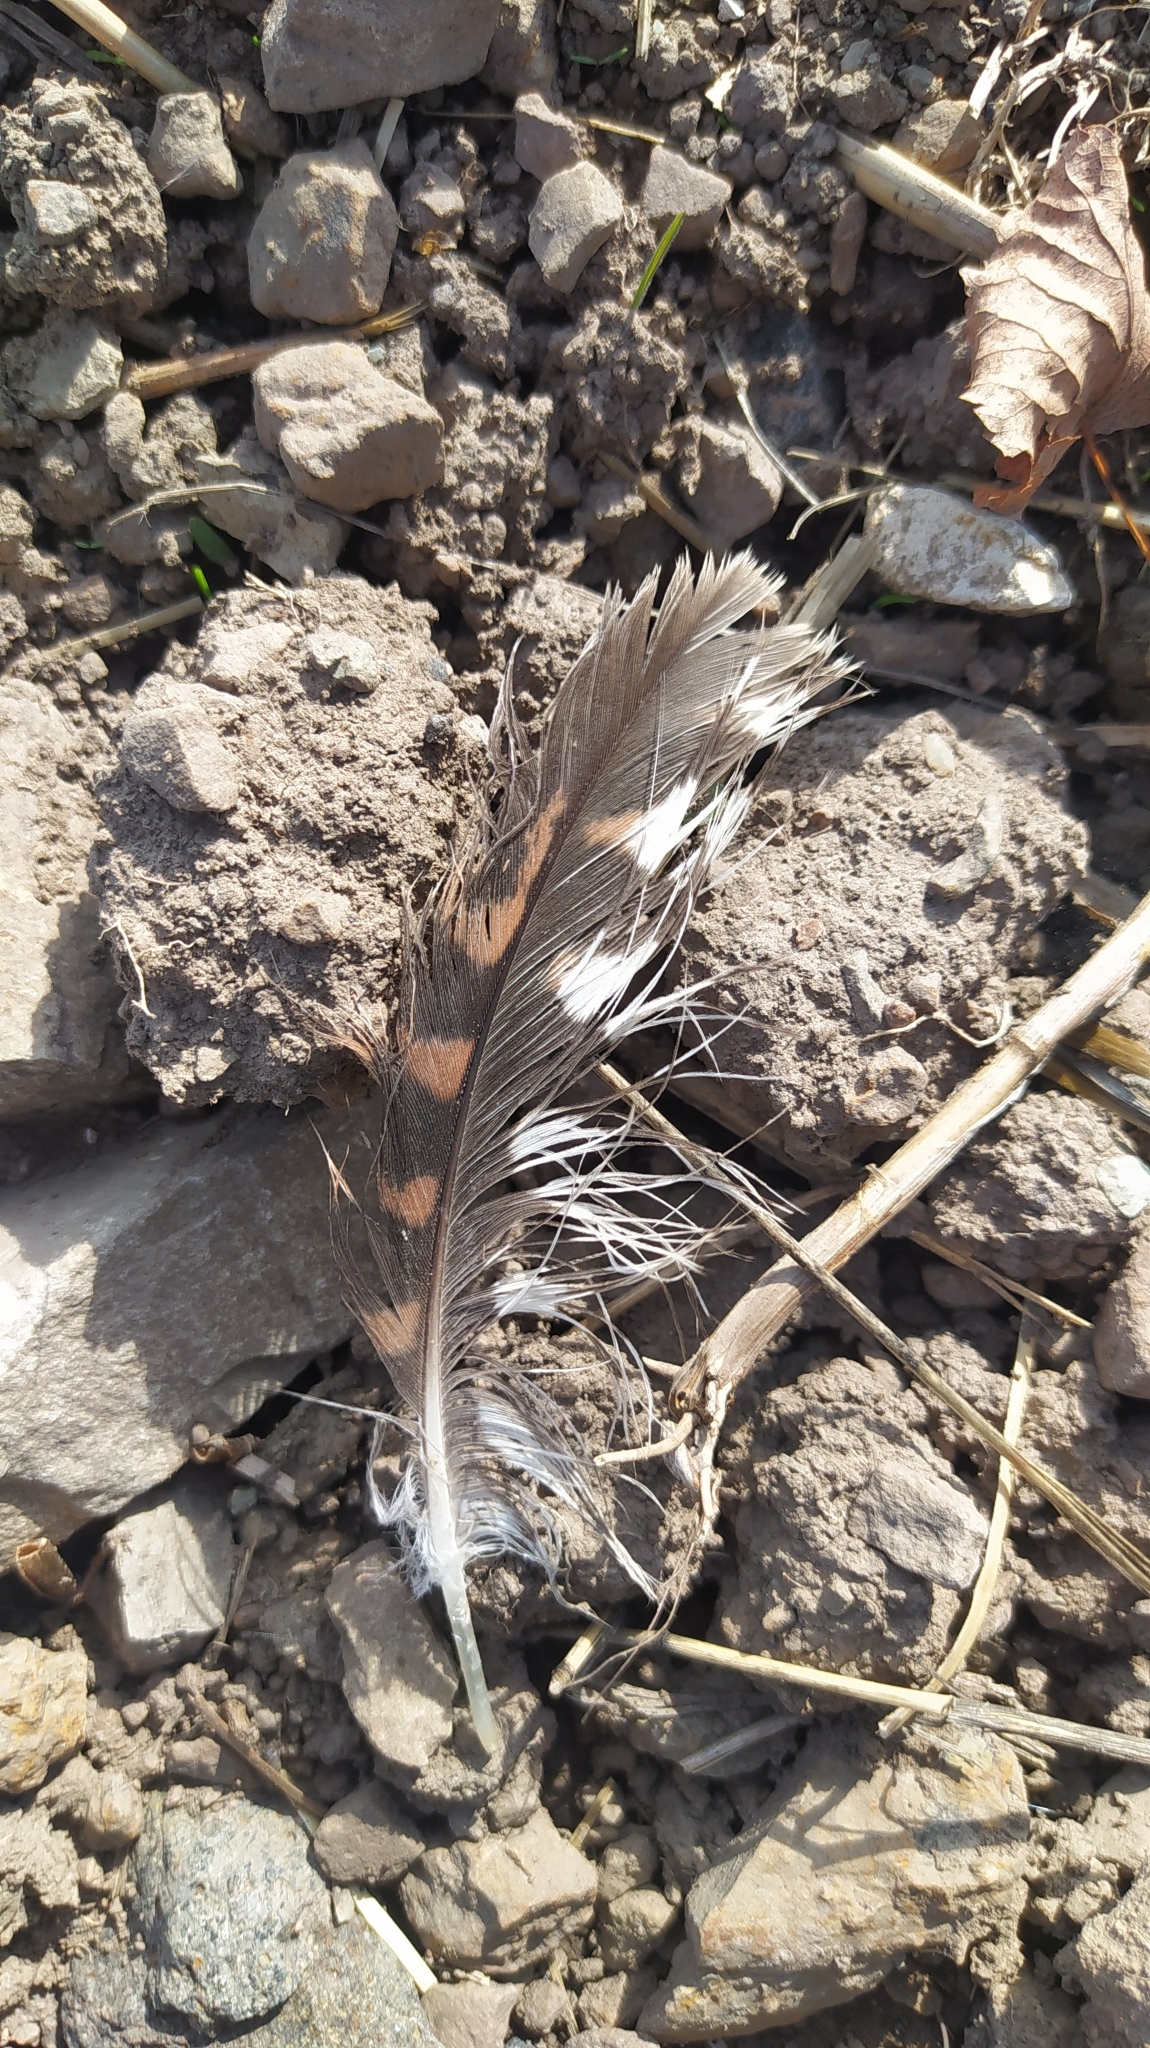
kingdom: Animalia
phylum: Chordata
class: Aves
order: Falconiformes
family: Falconidae
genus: Falco
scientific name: Falco tinnunculus
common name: Common kestrel
